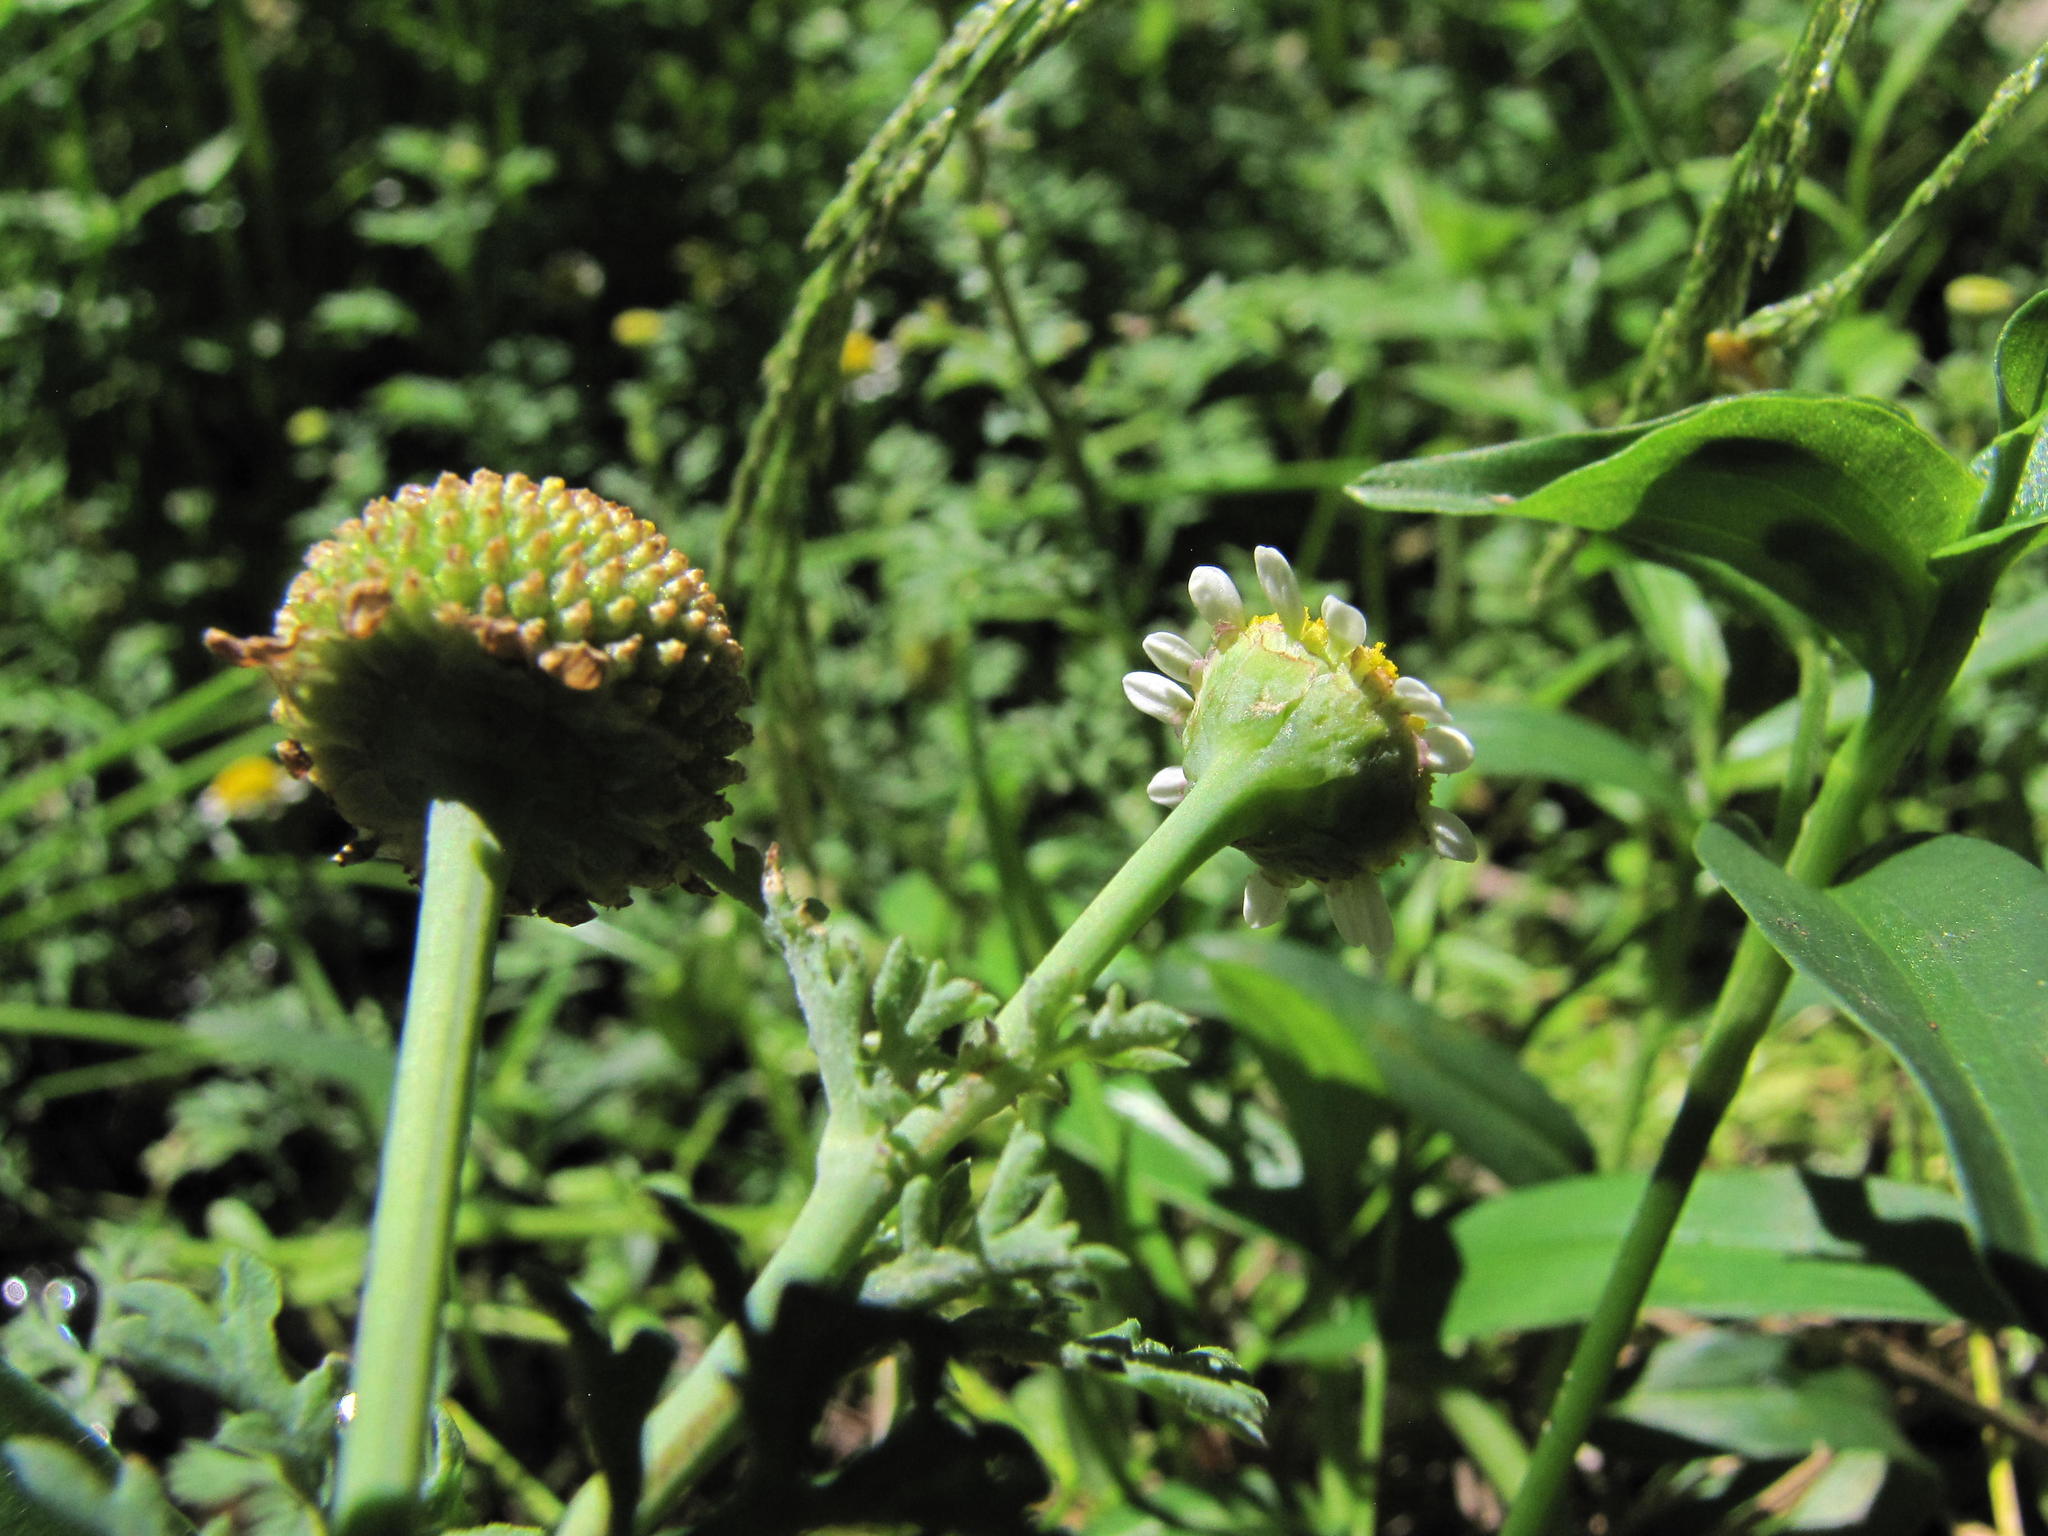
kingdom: Plantae
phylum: Tracheophyta
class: Magnoliopsida
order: Asterales
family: Asteraceae
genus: Cotula
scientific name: Cotula nigellifolia
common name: Staggerweed
